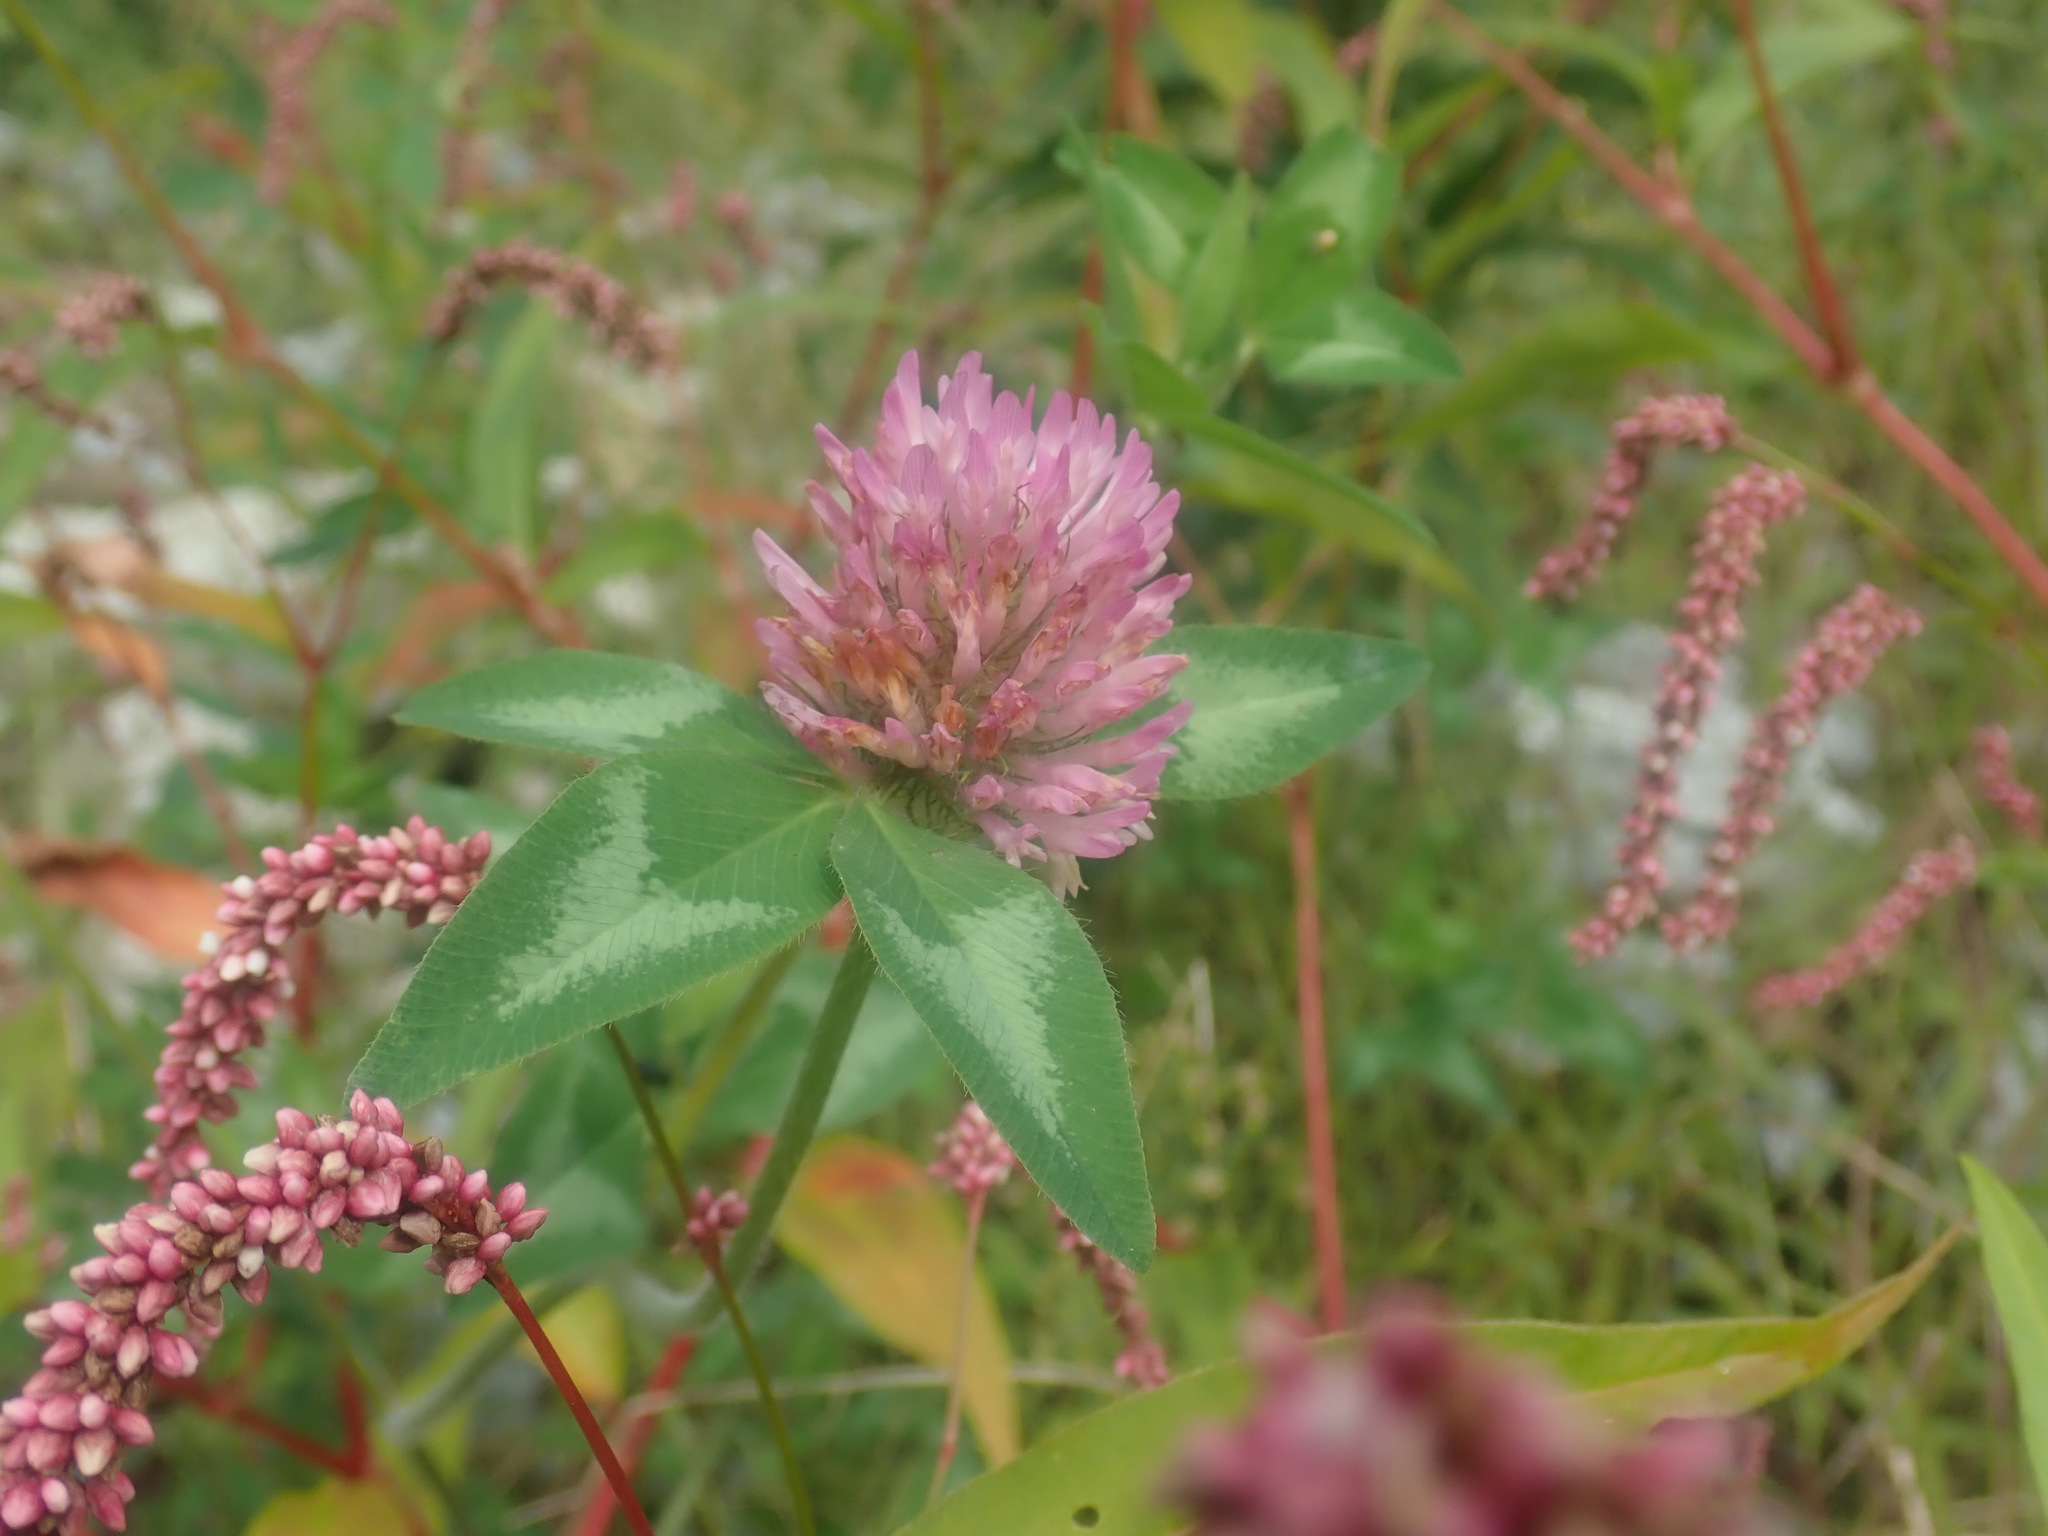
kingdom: Plantae
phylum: Tracheophyta
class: Magnoliopsida
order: Fabales
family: Fabaceae
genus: Trifolium
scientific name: Trifolium pratense
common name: Red clover
